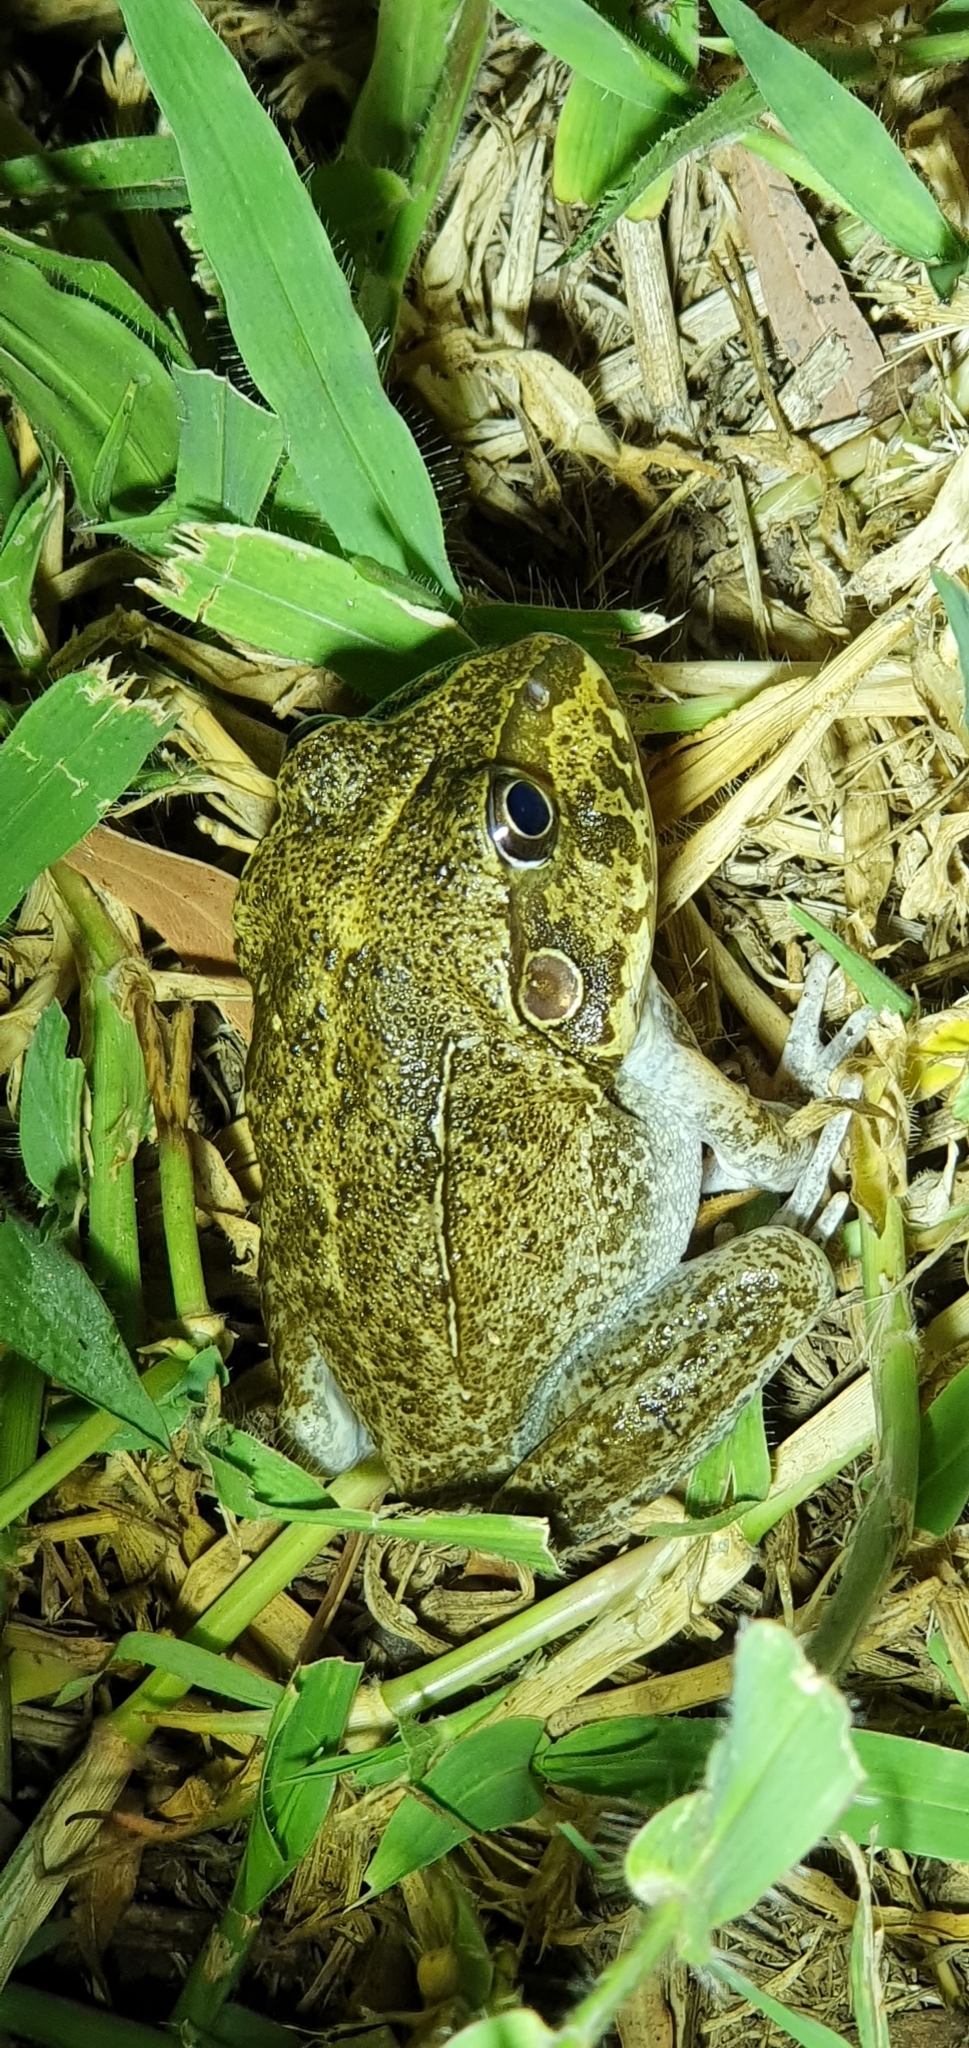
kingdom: Animalia
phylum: Chordata
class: Amphibia
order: Anura
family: Pelodryadidae
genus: Ranoidea
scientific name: Ranoidea novaehollandiae
